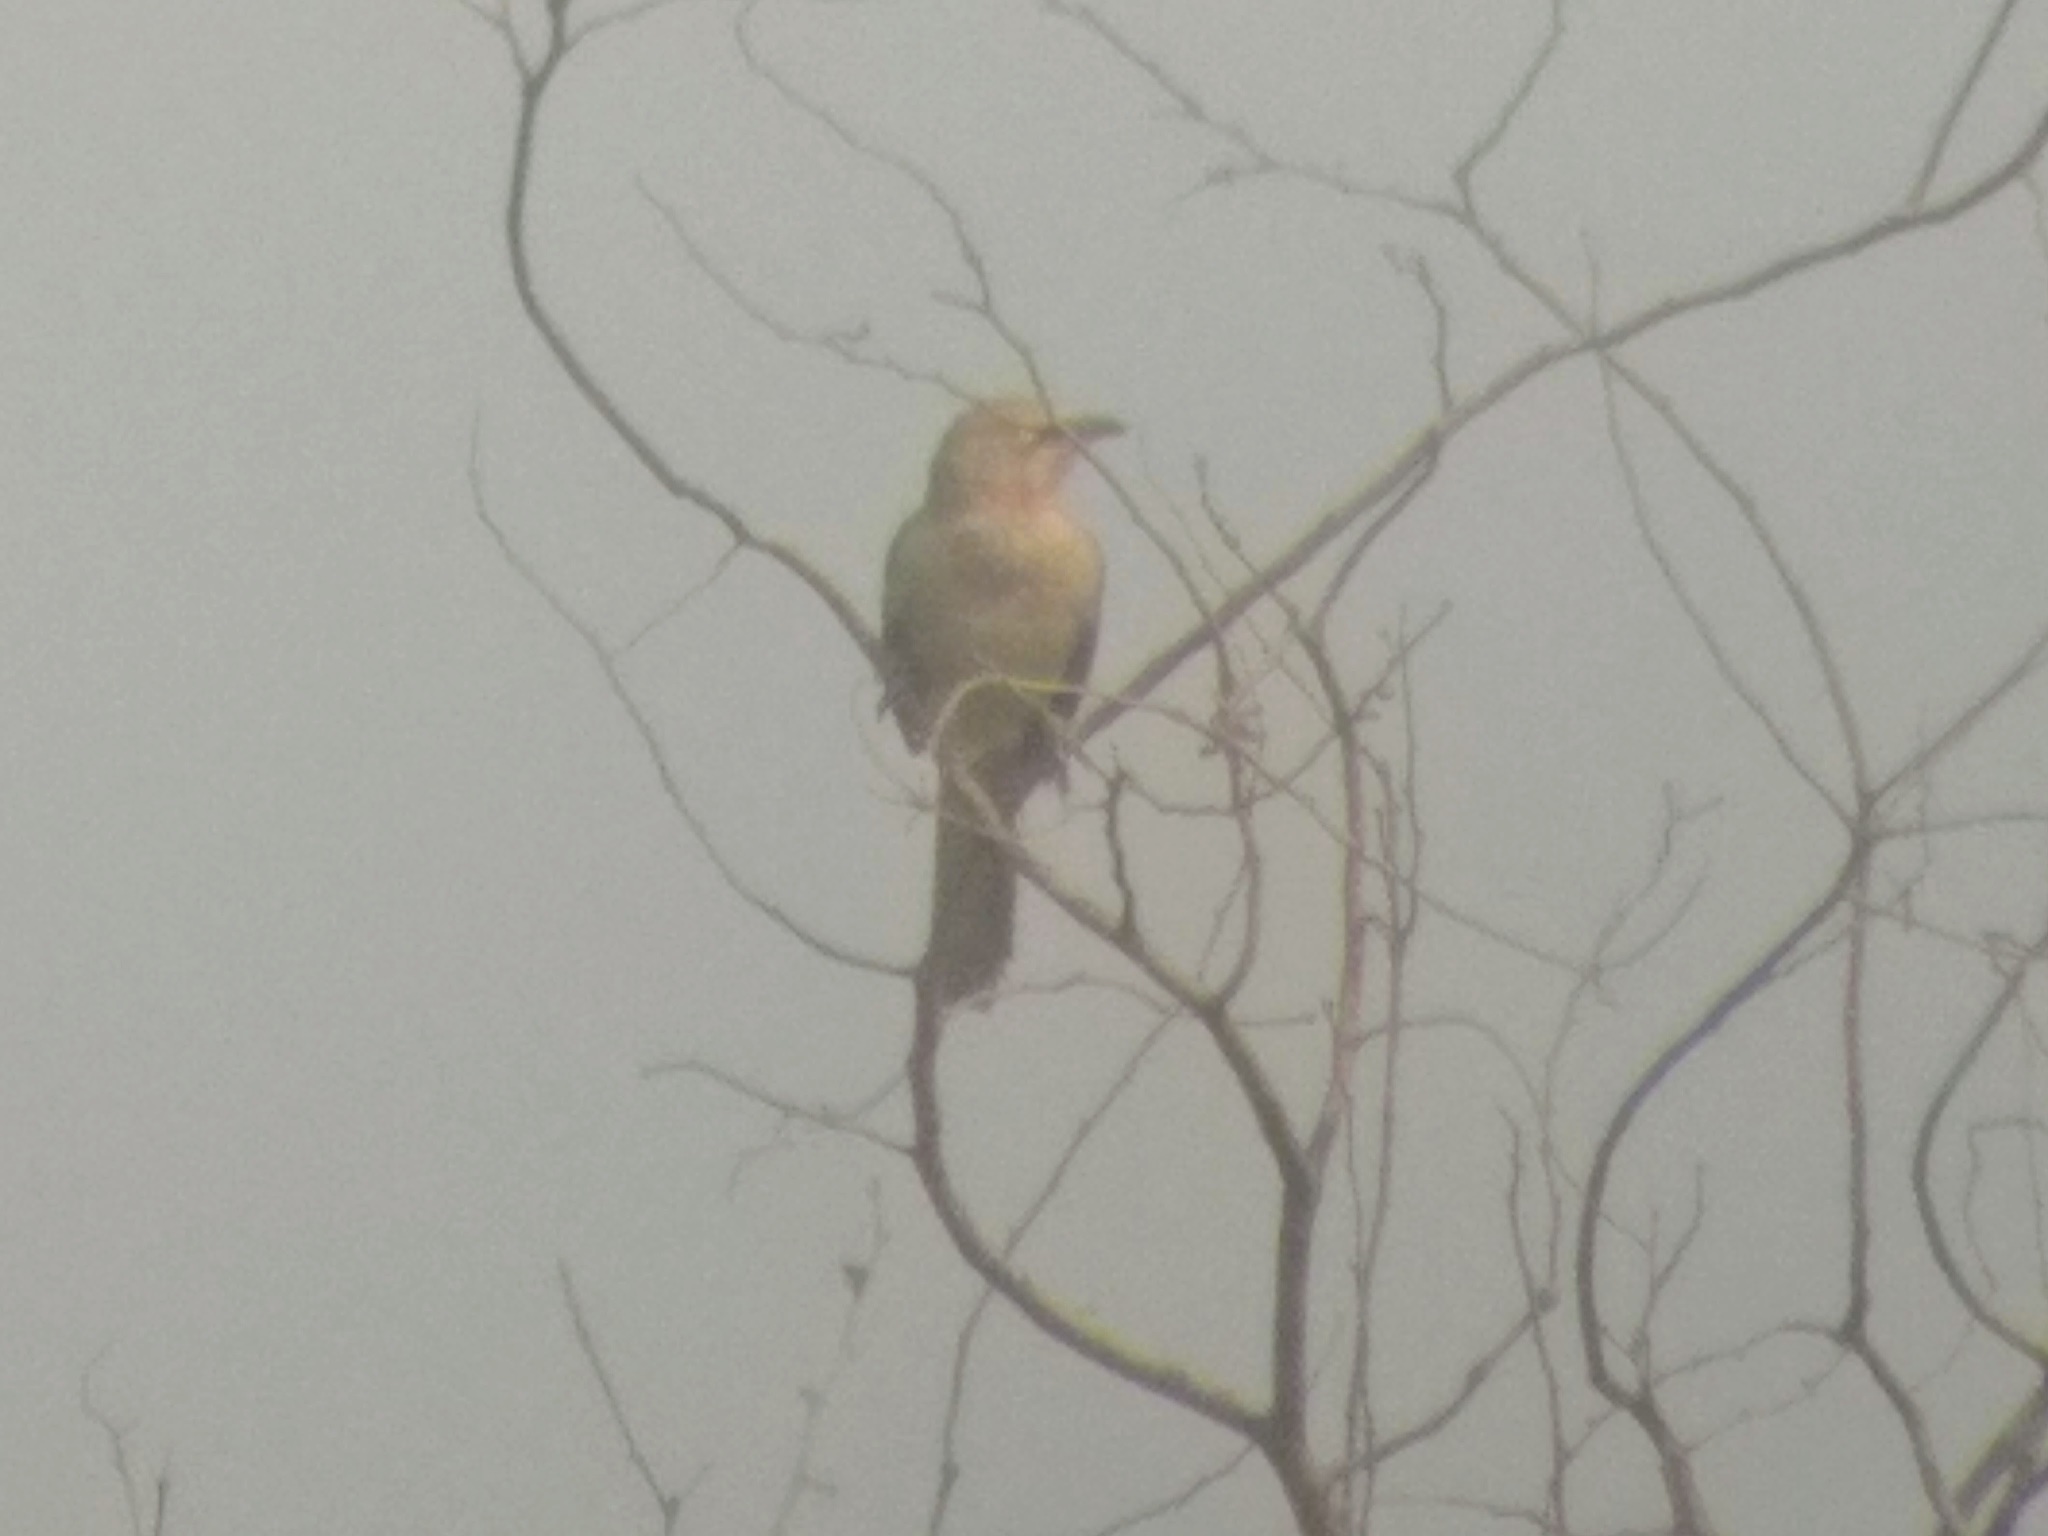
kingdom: Animalia
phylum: Chordata
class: Aves
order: Passeriformes
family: Leiothrichidae
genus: Turdoides
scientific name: Turdoides malcolmi
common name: Large grey babbler
